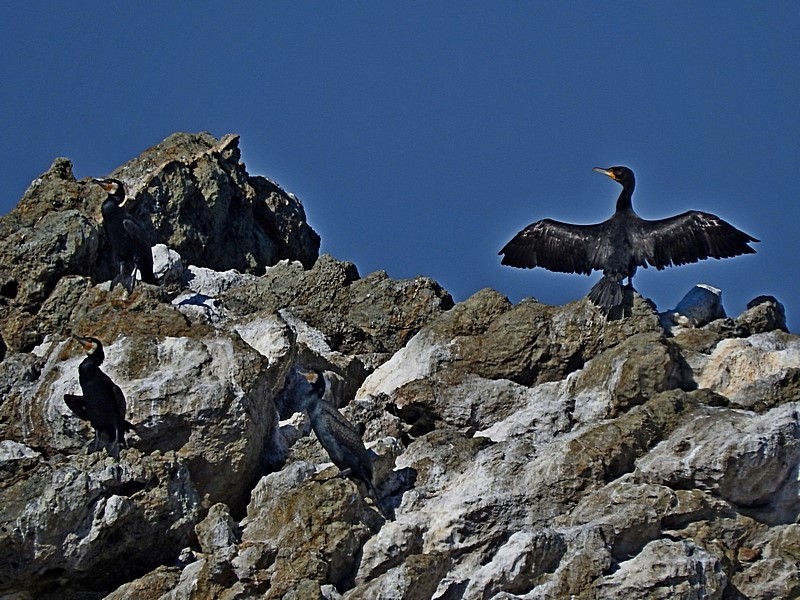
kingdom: Animalia
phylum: Chordata
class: Aves
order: Suliformes
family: Phalacrocoracidae
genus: Phalacrocorax
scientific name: Phalacrocorax carbo
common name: Great cormorant
